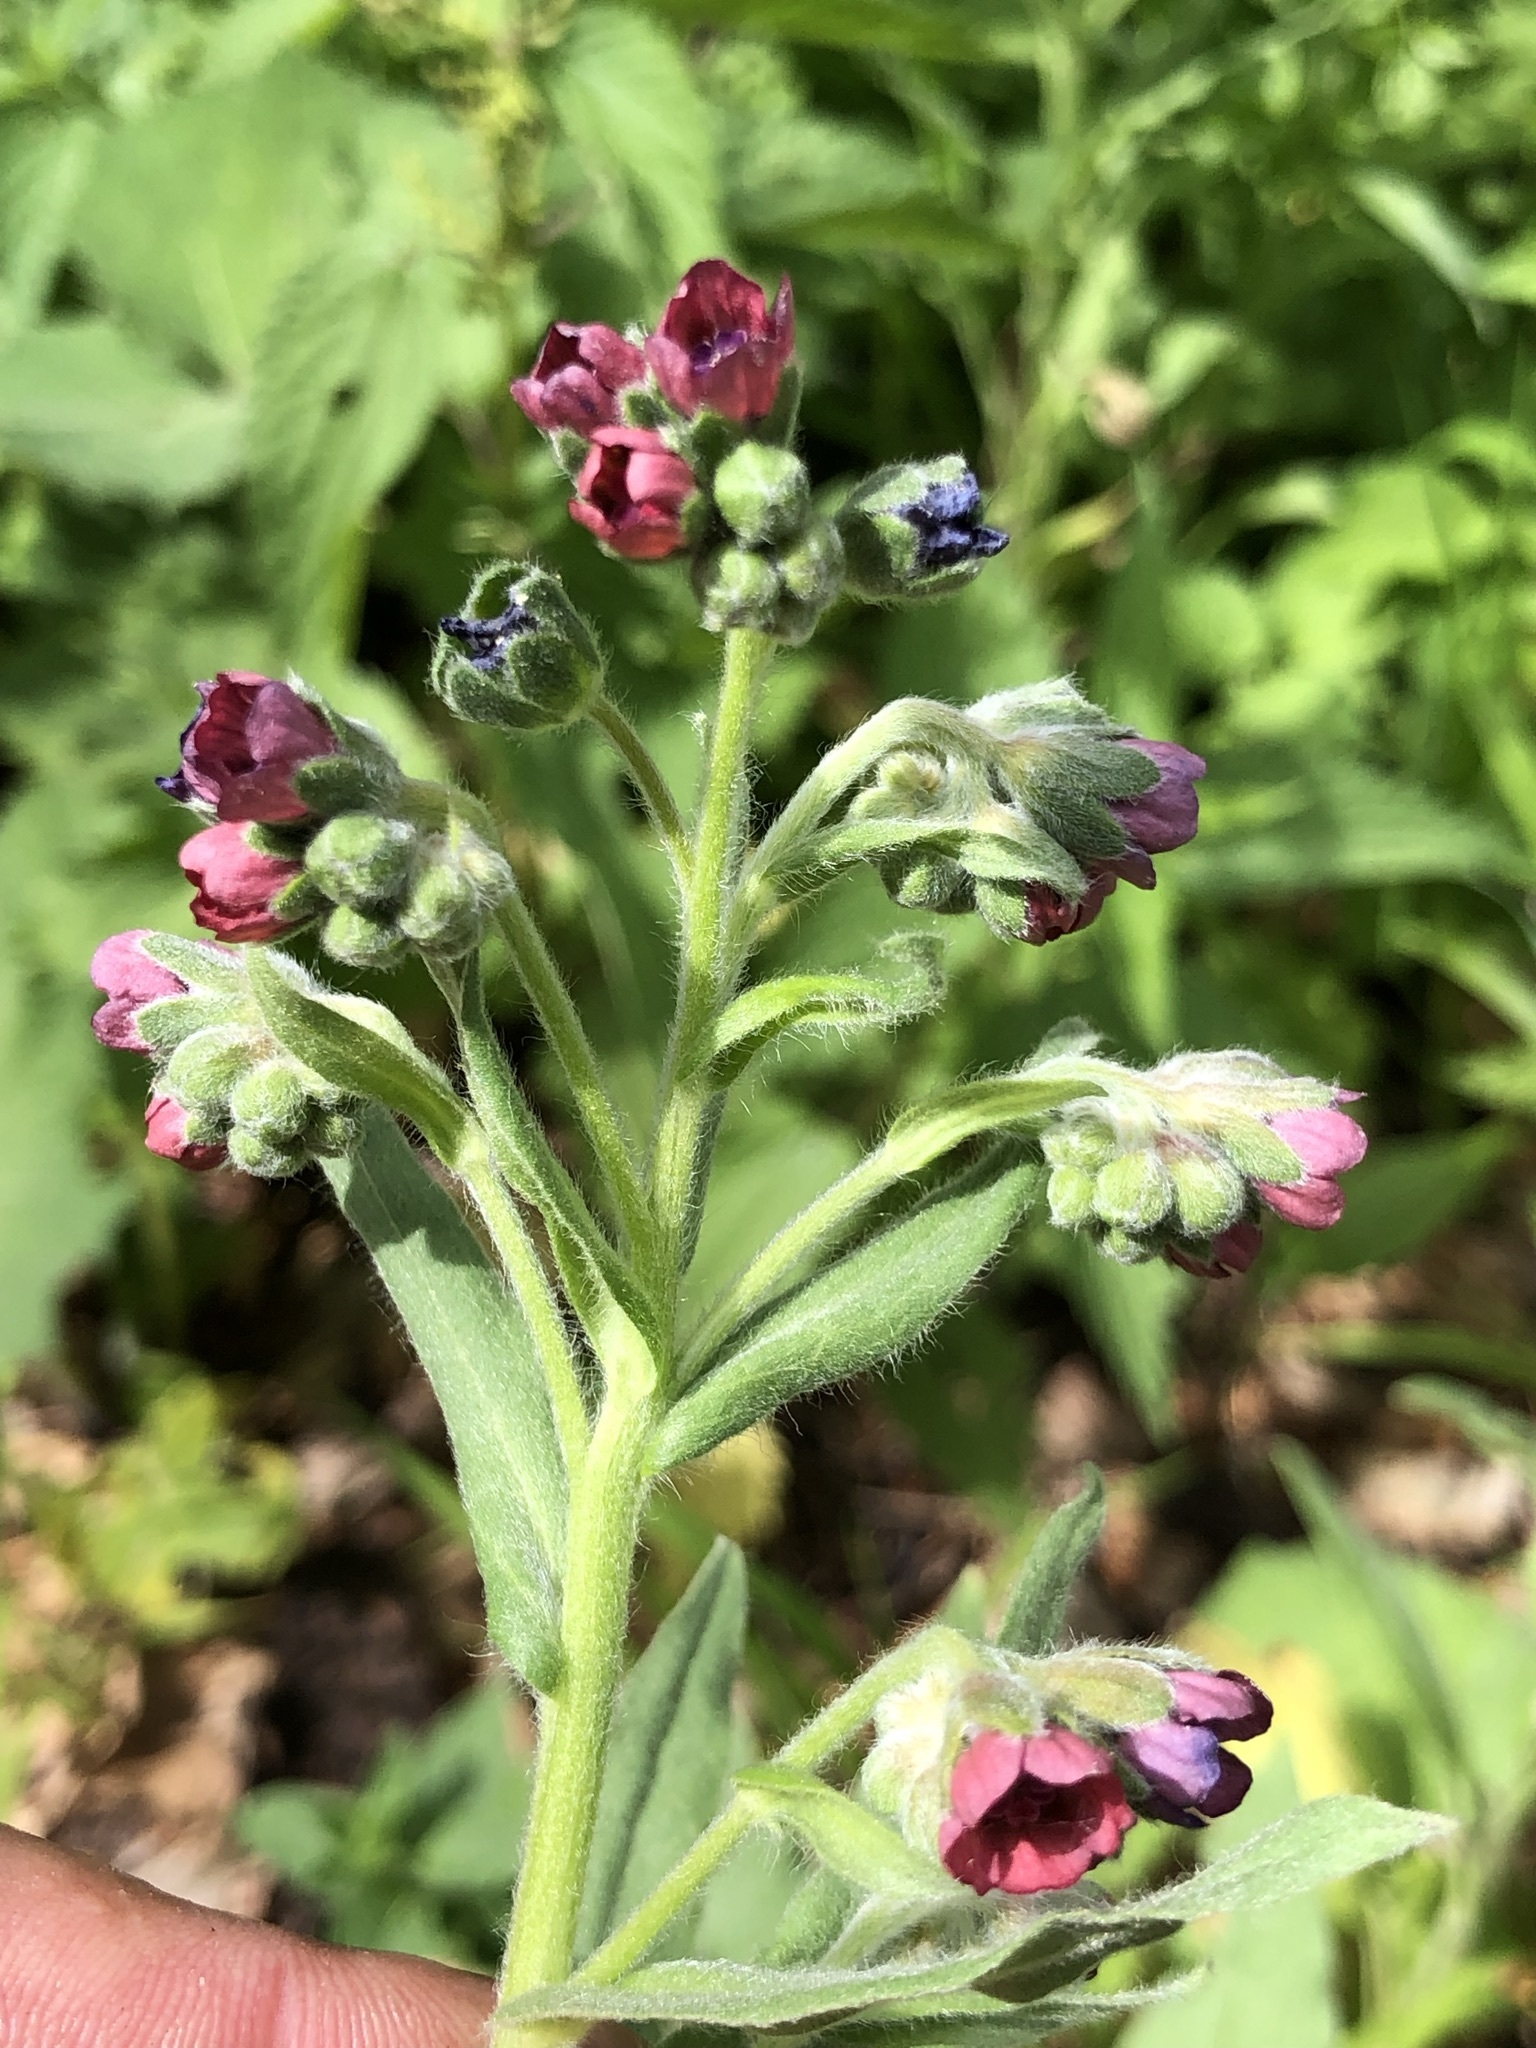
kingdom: Plantae
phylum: Tracheophyta
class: Magnoliopsida
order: Boraginales
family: Boraginaceae
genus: Cynoglossum
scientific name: Cynoglossum officinale
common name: Hound's-tongue
